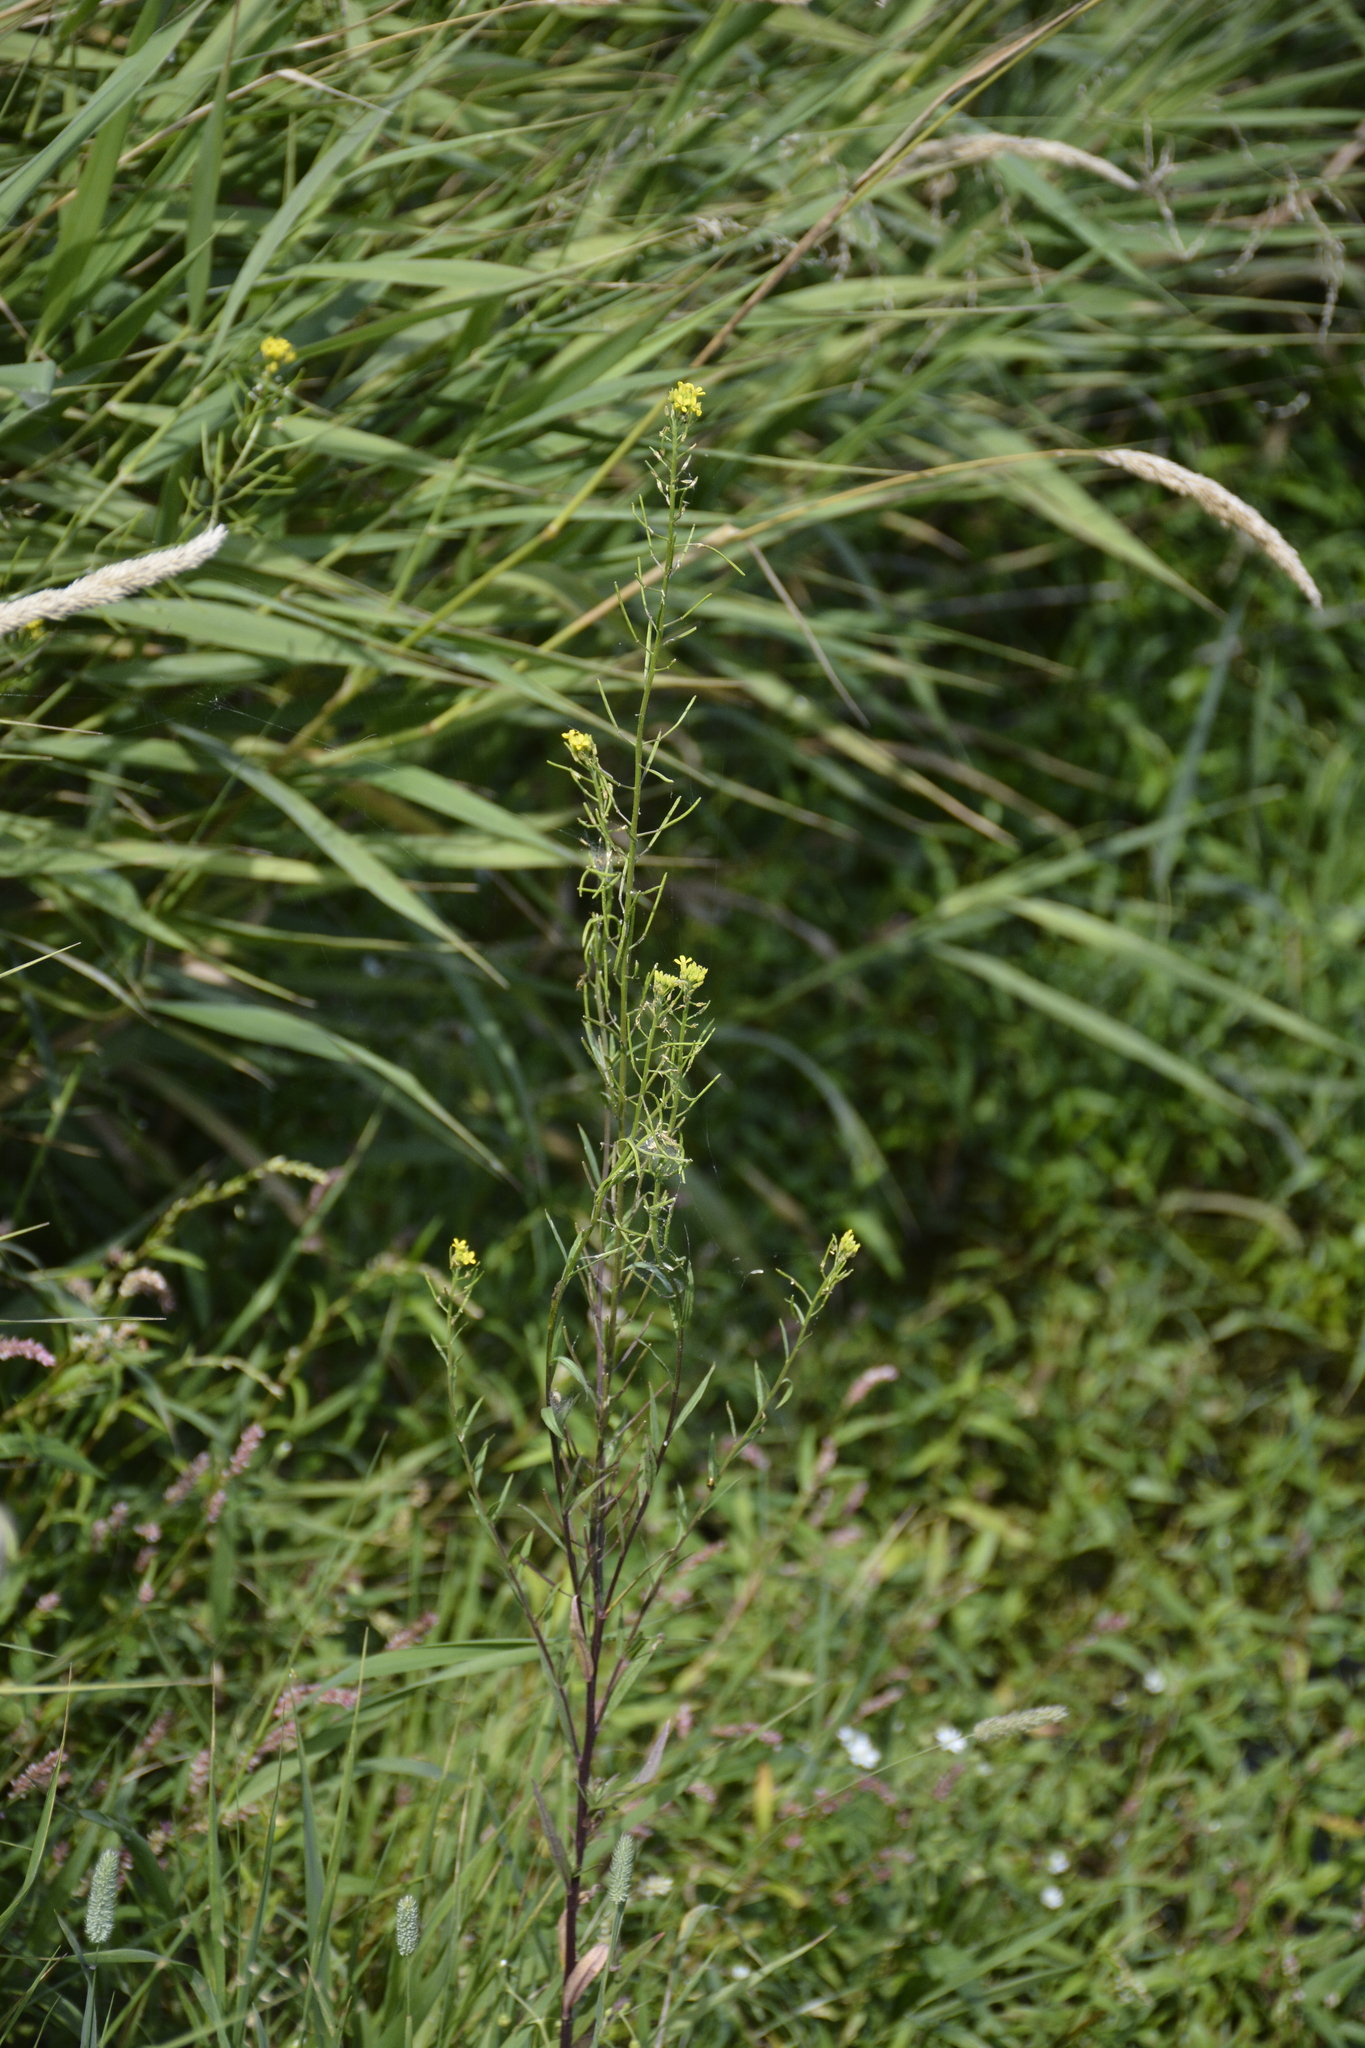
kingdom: Plantae
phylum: Tracheophyta
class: Magnoliopsida
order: Brassicales
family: Brassicaceae
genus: Erysimum
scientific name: Erysimum cheiranthoides
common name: Treacle mustard
